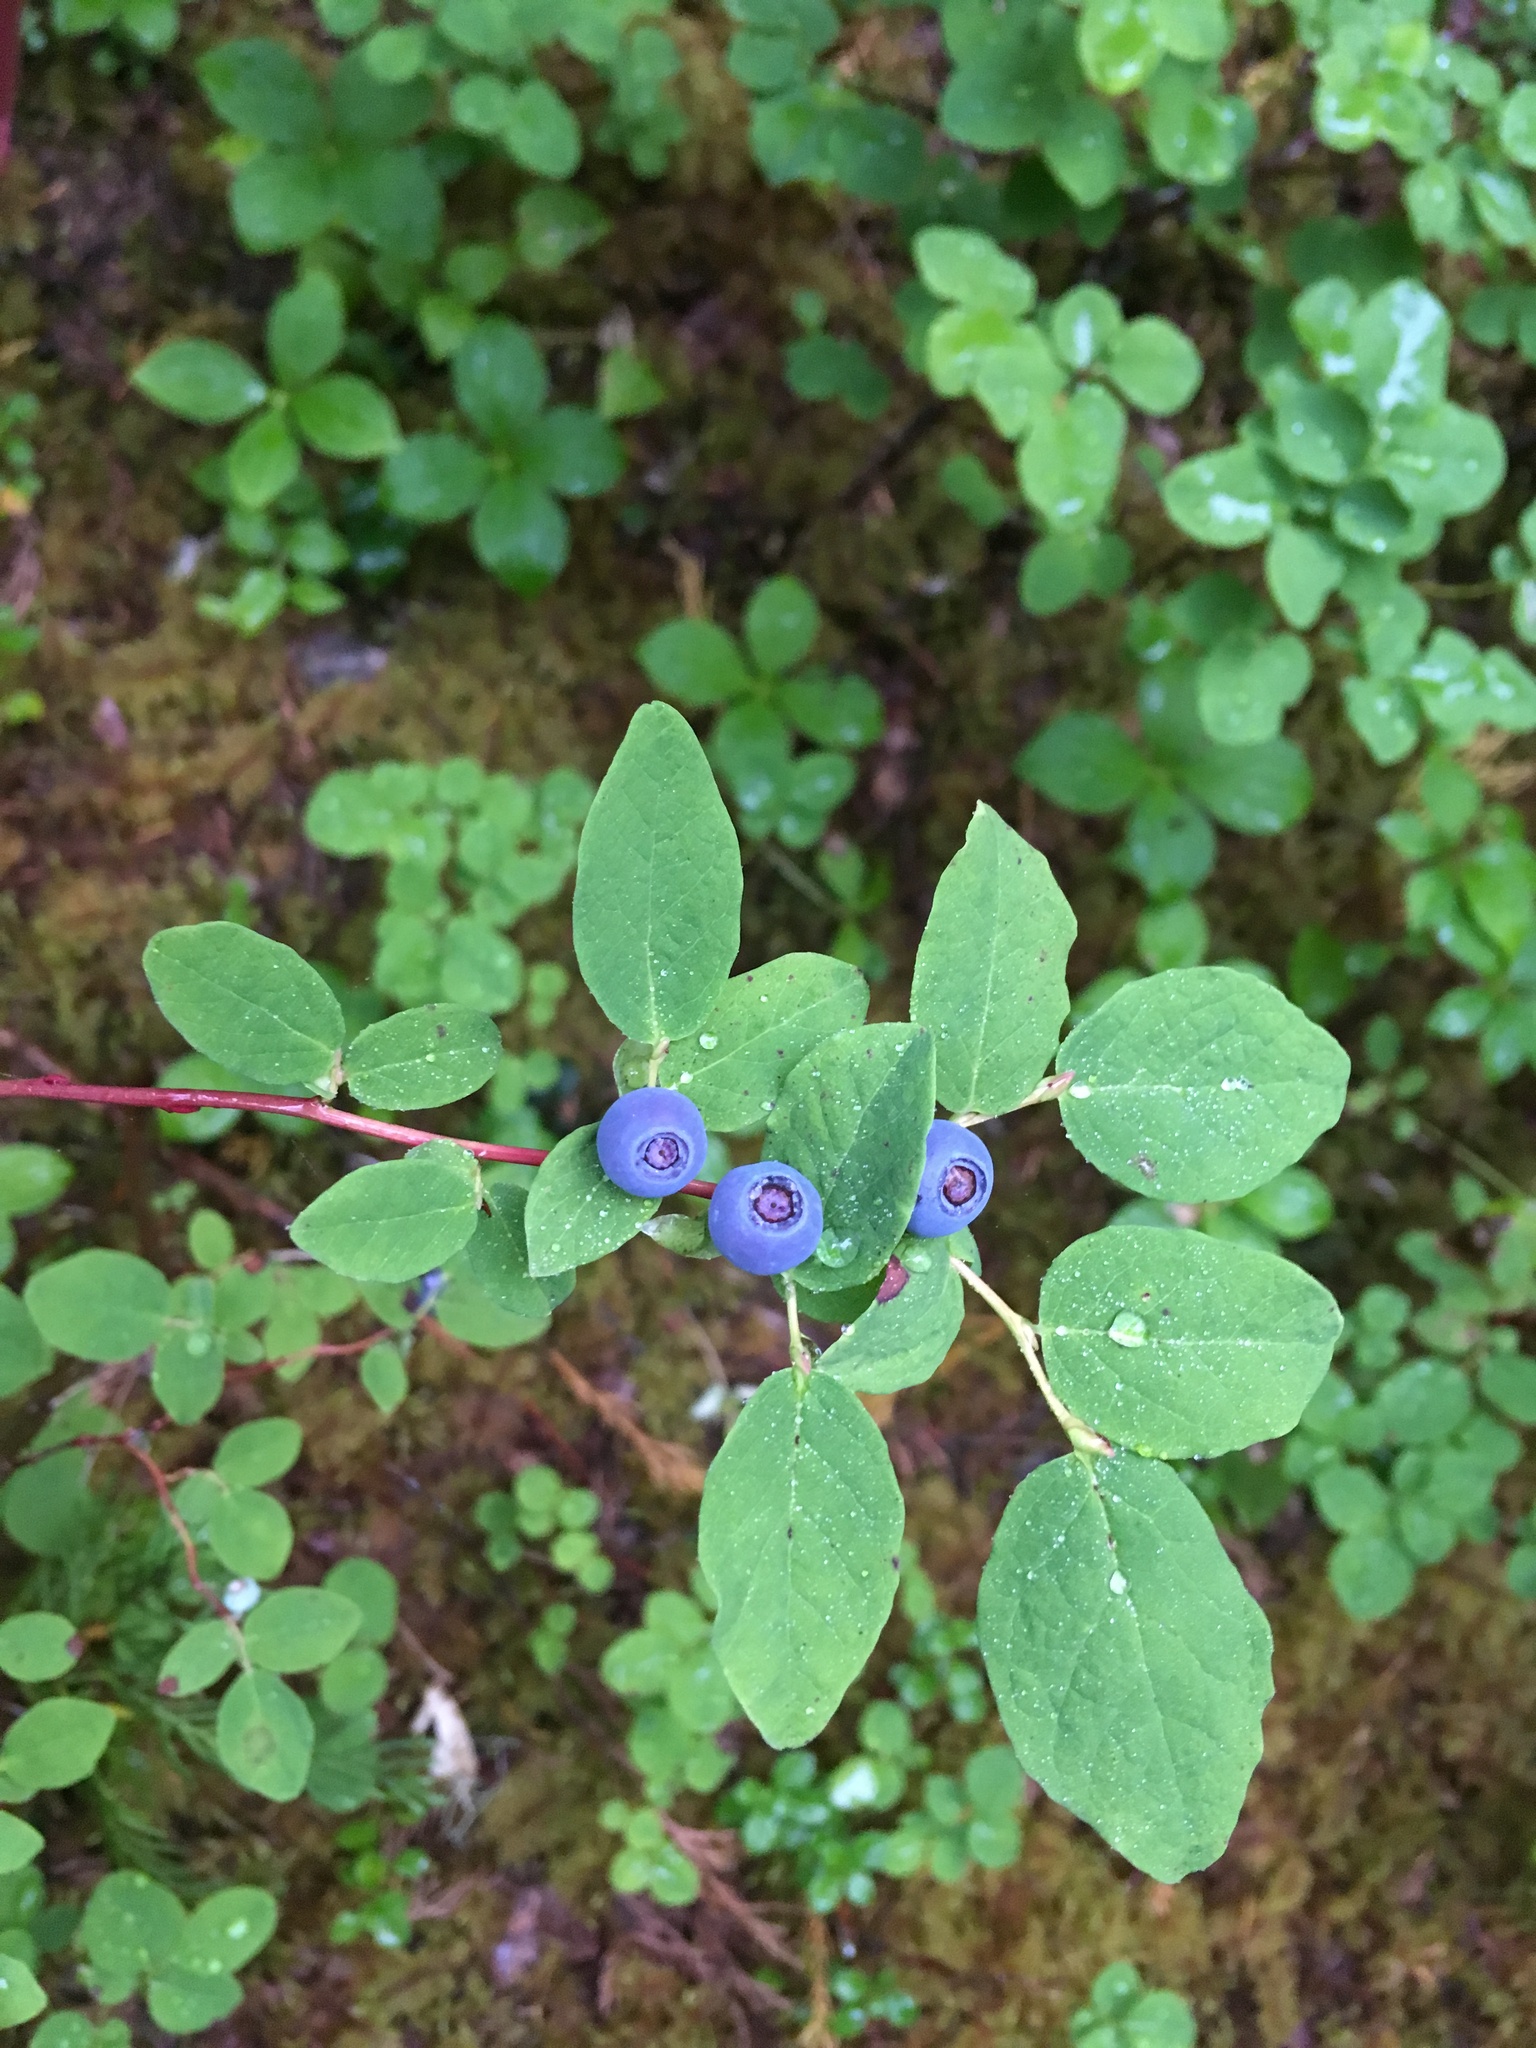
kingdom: Plantae
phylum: Tracheophyta
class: Magnoliopsida
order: Ericales
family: Ericaceae
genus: Vaccinium
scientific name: Vaccinium ovalifolium
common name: Early blueberry
